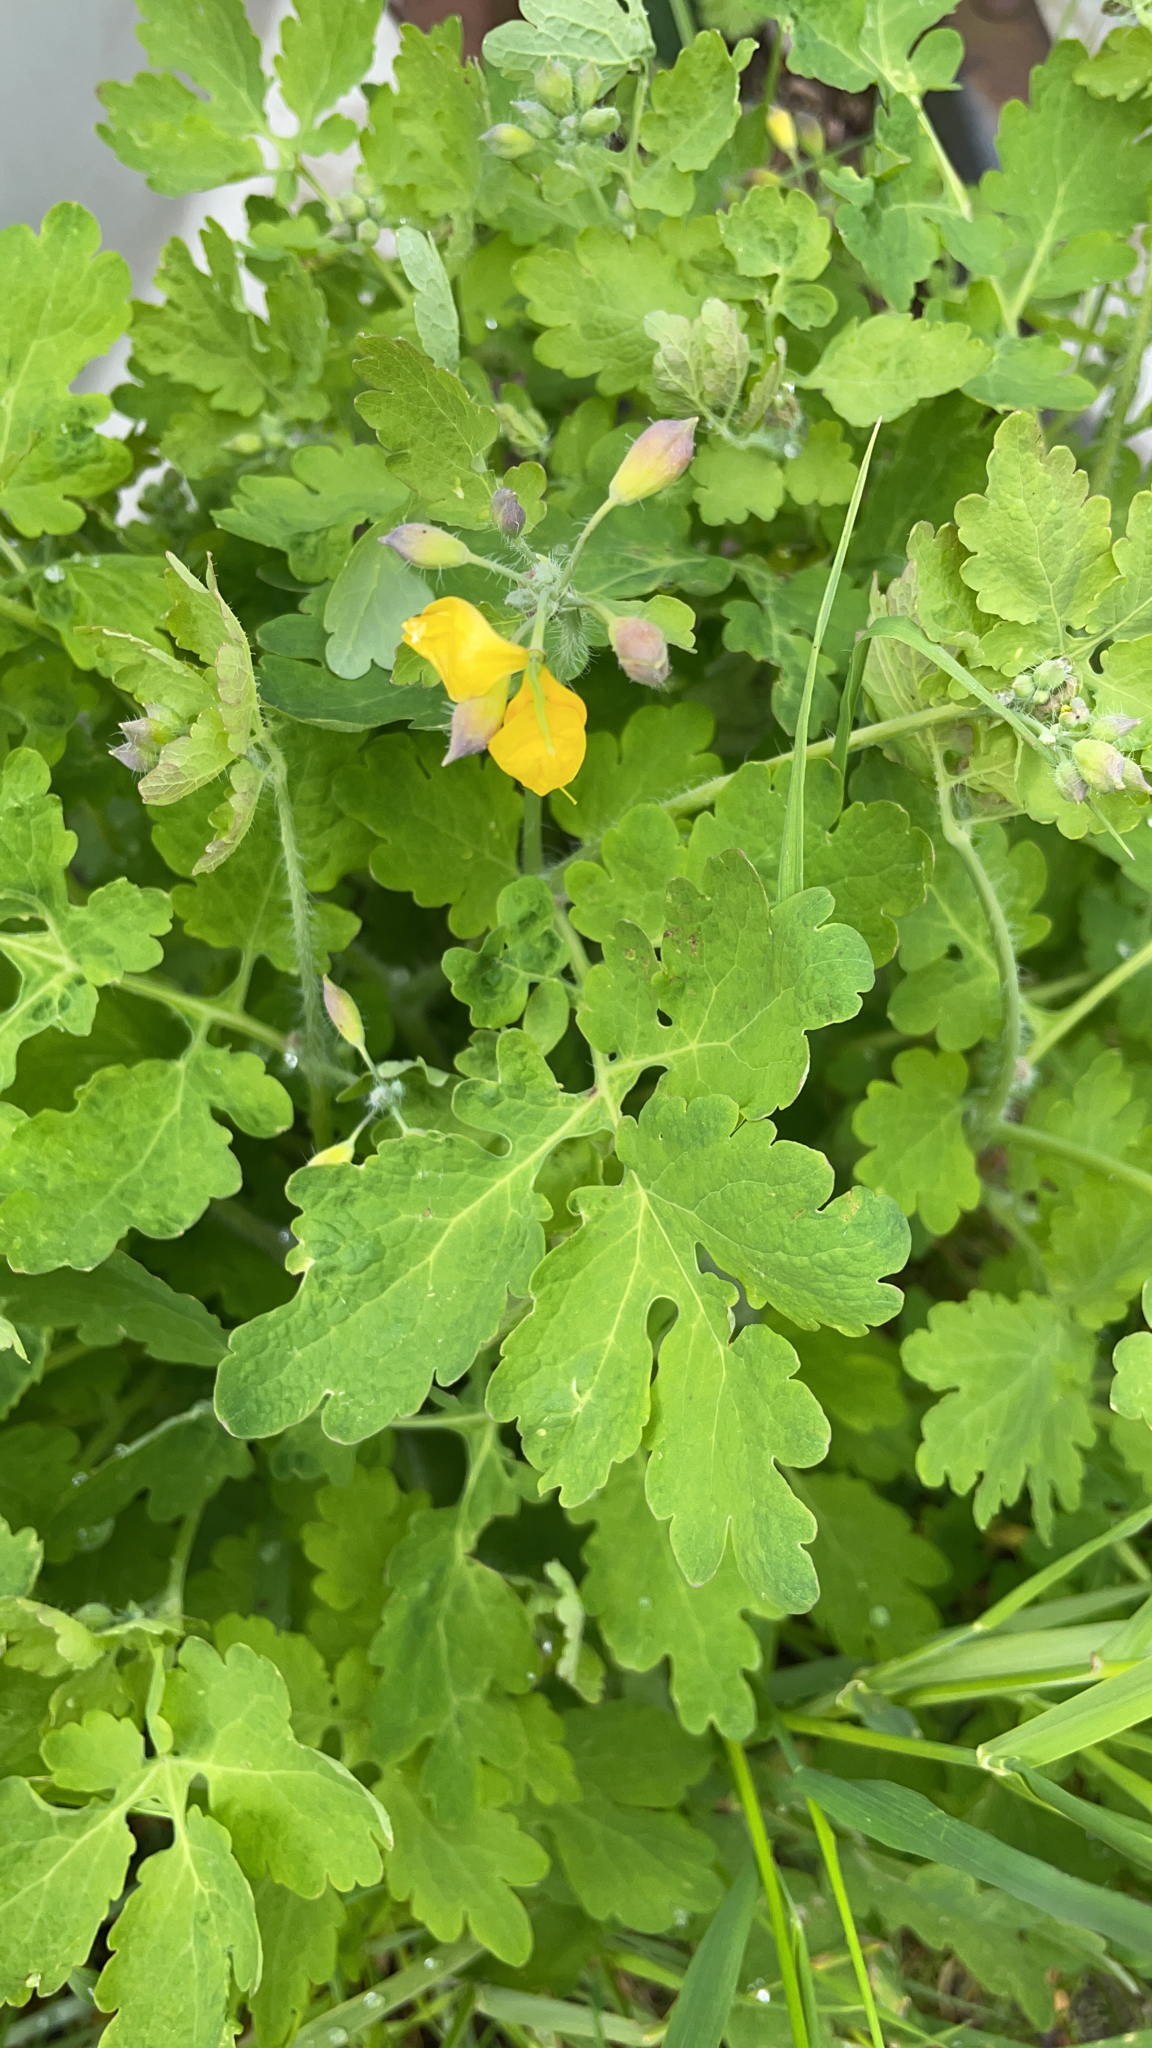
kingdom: Plantae
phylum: Tracheophyta
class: Magnoliopsida
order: Ranunculales
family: Papaveraceae
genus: Chelidonium
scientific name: Chelidonium majus
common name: Greater celandine
